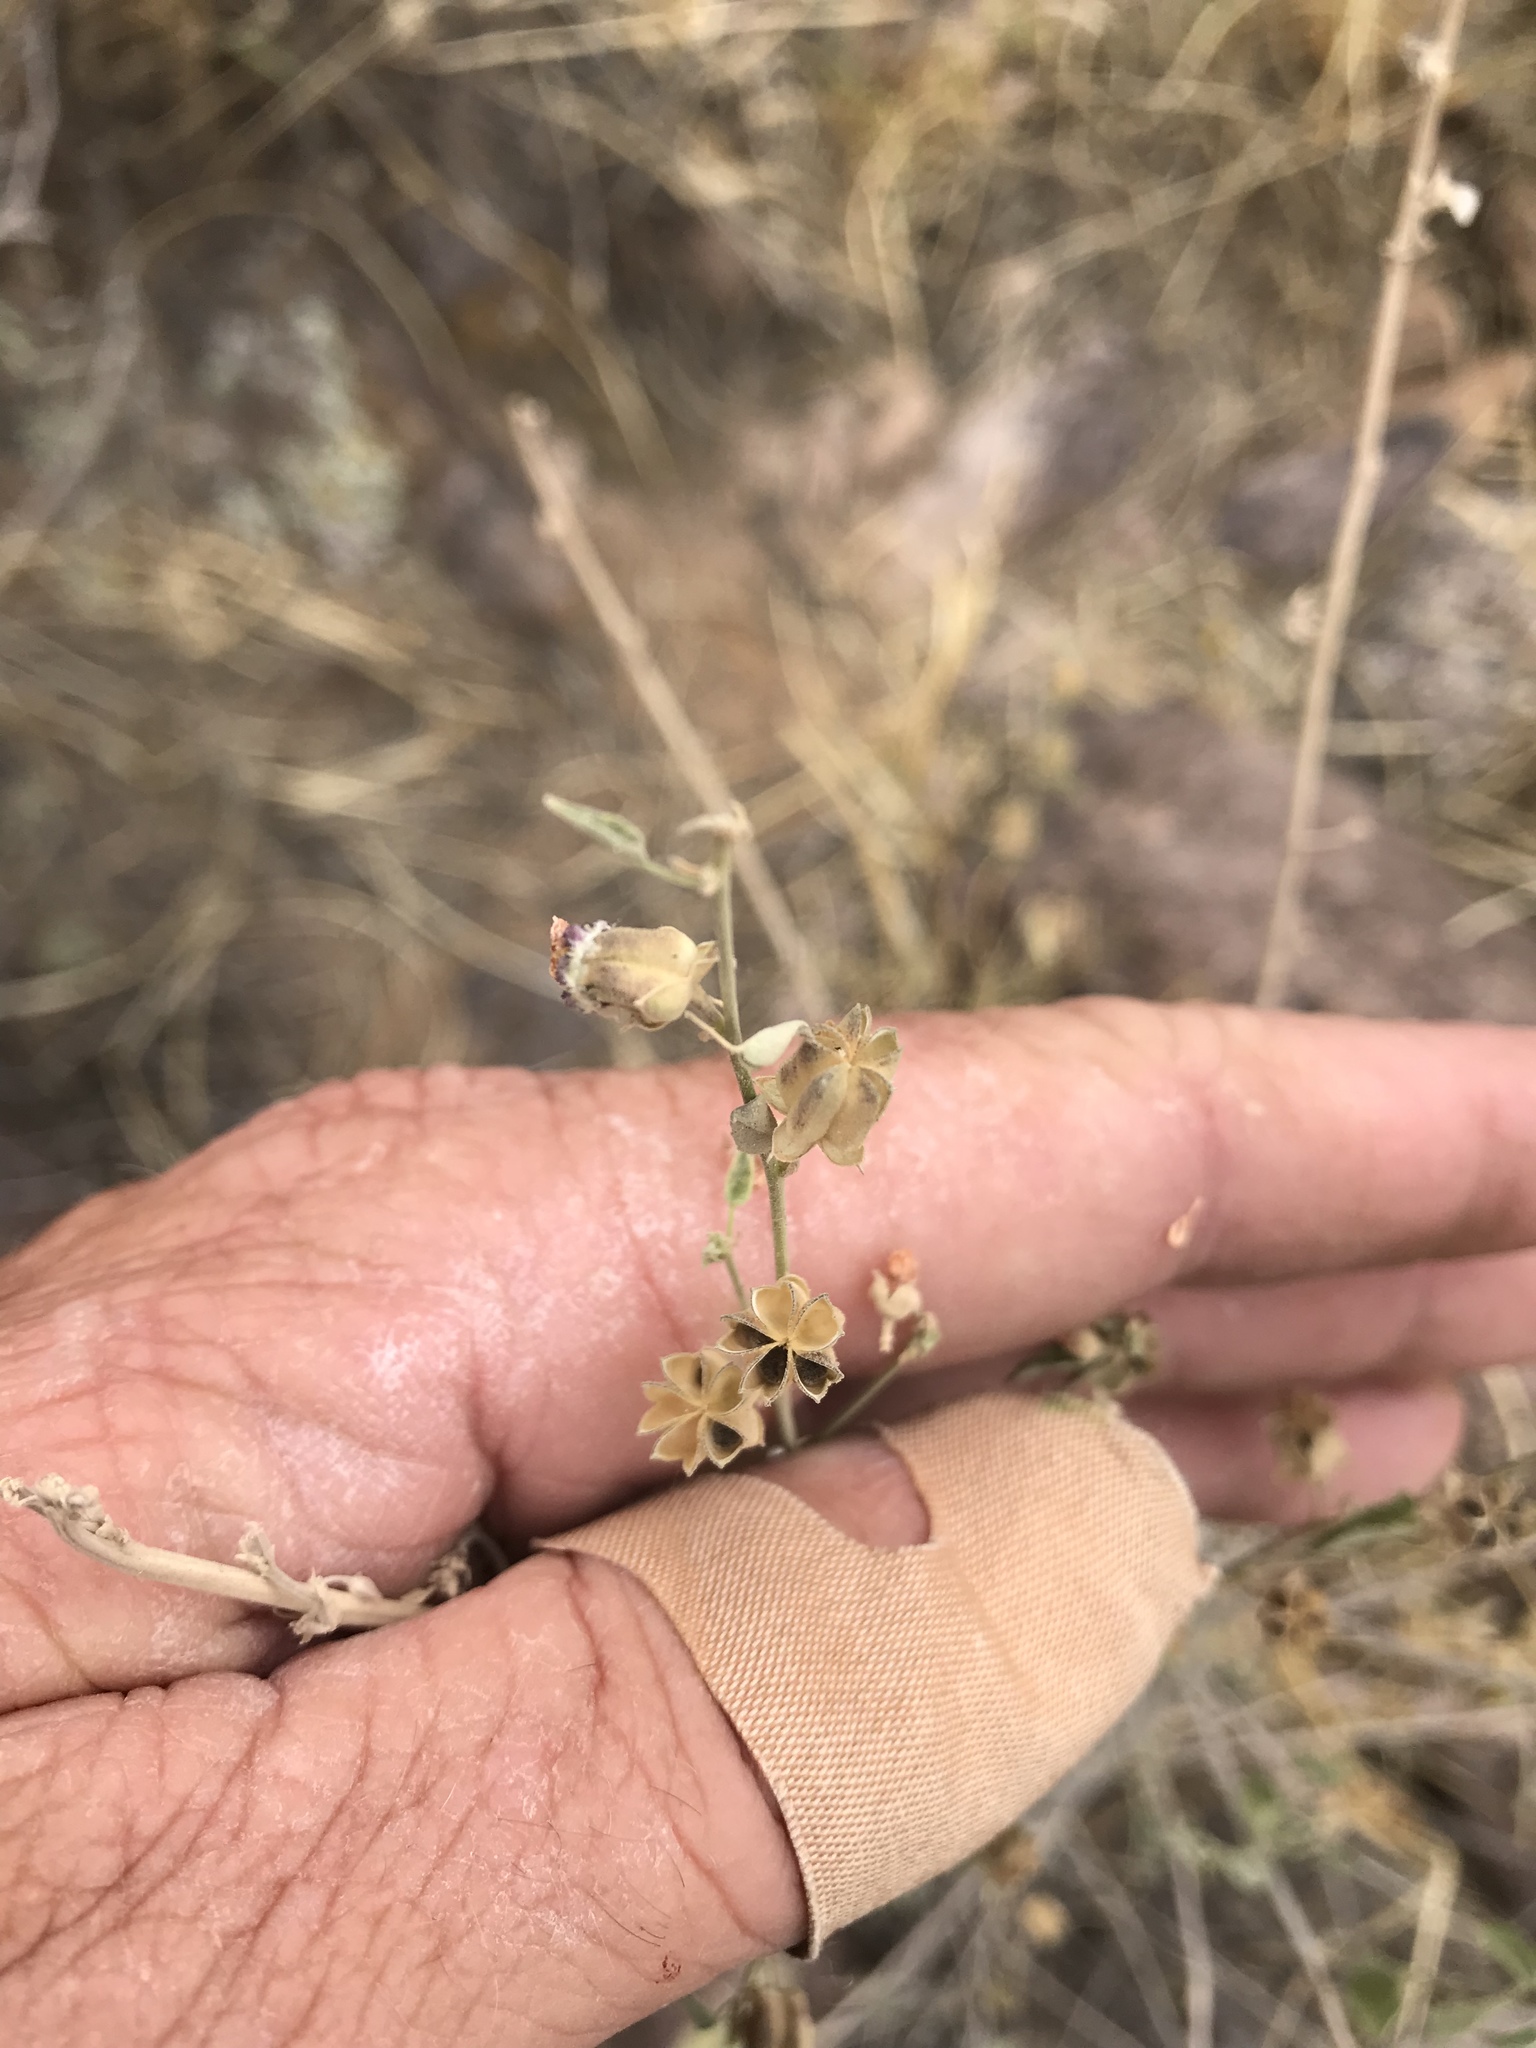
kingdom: Plantae
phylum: Tracheophyta
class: Magnoliopsida
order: Malvales
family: Malvaceae
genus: Abutilon
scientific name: Abutilon incanum
